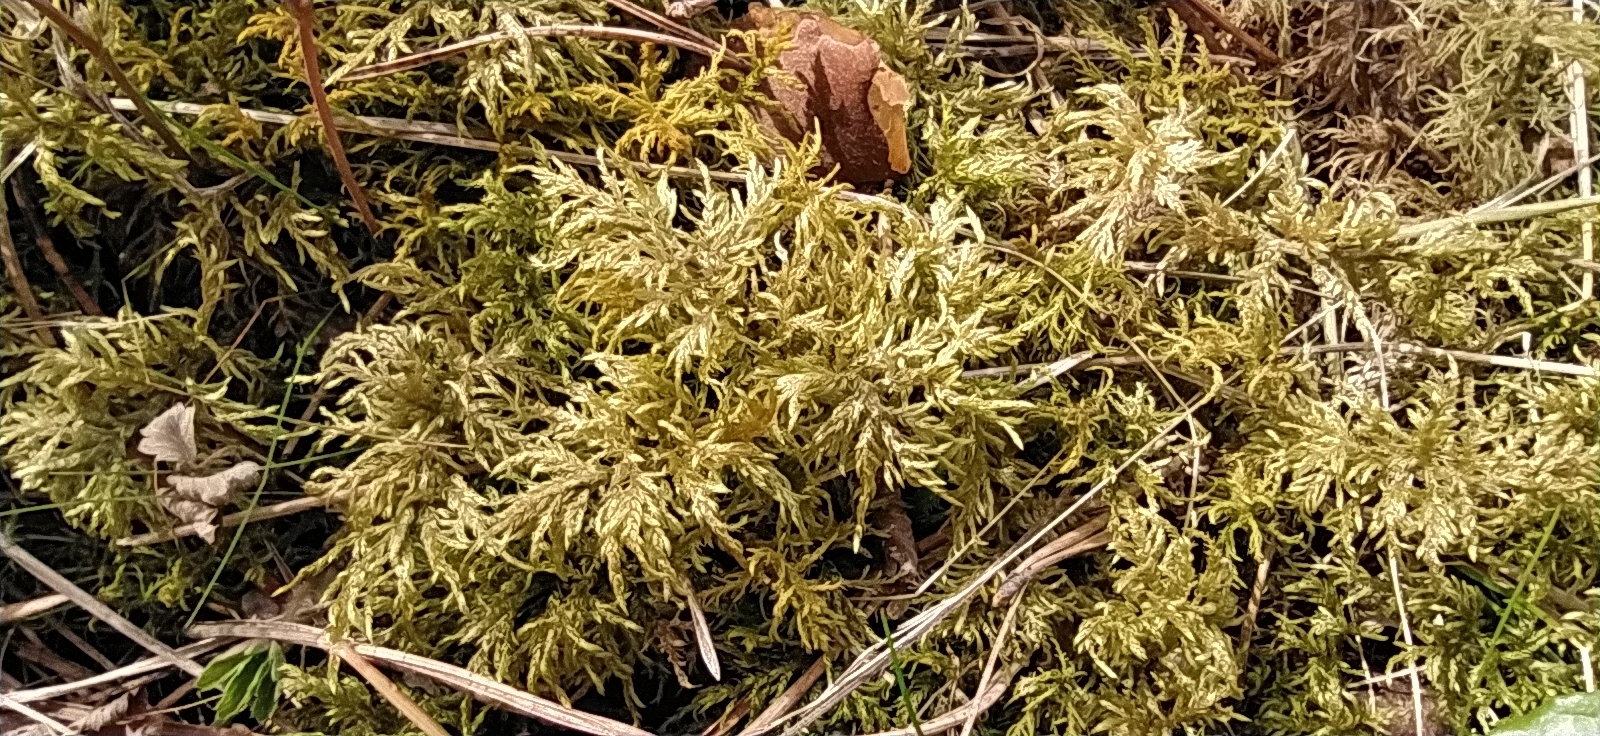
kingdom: Plantae
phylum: Bryophyta
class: Bryopsida
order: Hypnales
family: Hylocomiaceae
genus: Hylocomium
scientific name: Hylocomium splendens
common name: Stairstep moss
